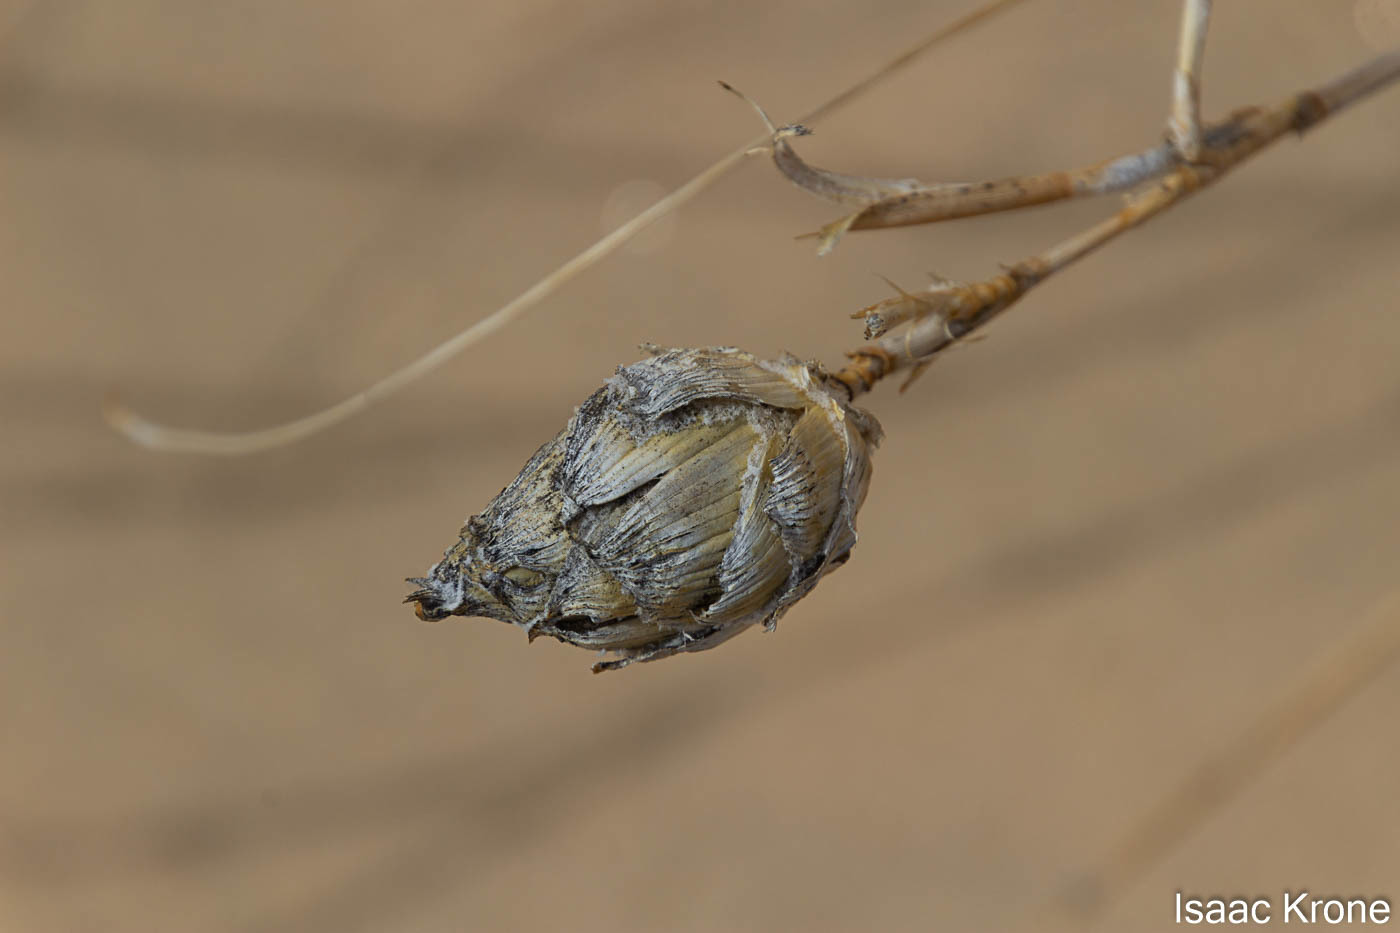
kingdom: Animalia
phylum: Arthropoda
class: Insecta
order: Diptera
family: Cecidomyiidae
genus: Rabdophaga
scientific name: Rabdophaga strobiloides
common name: Willow pinecone gall midge
